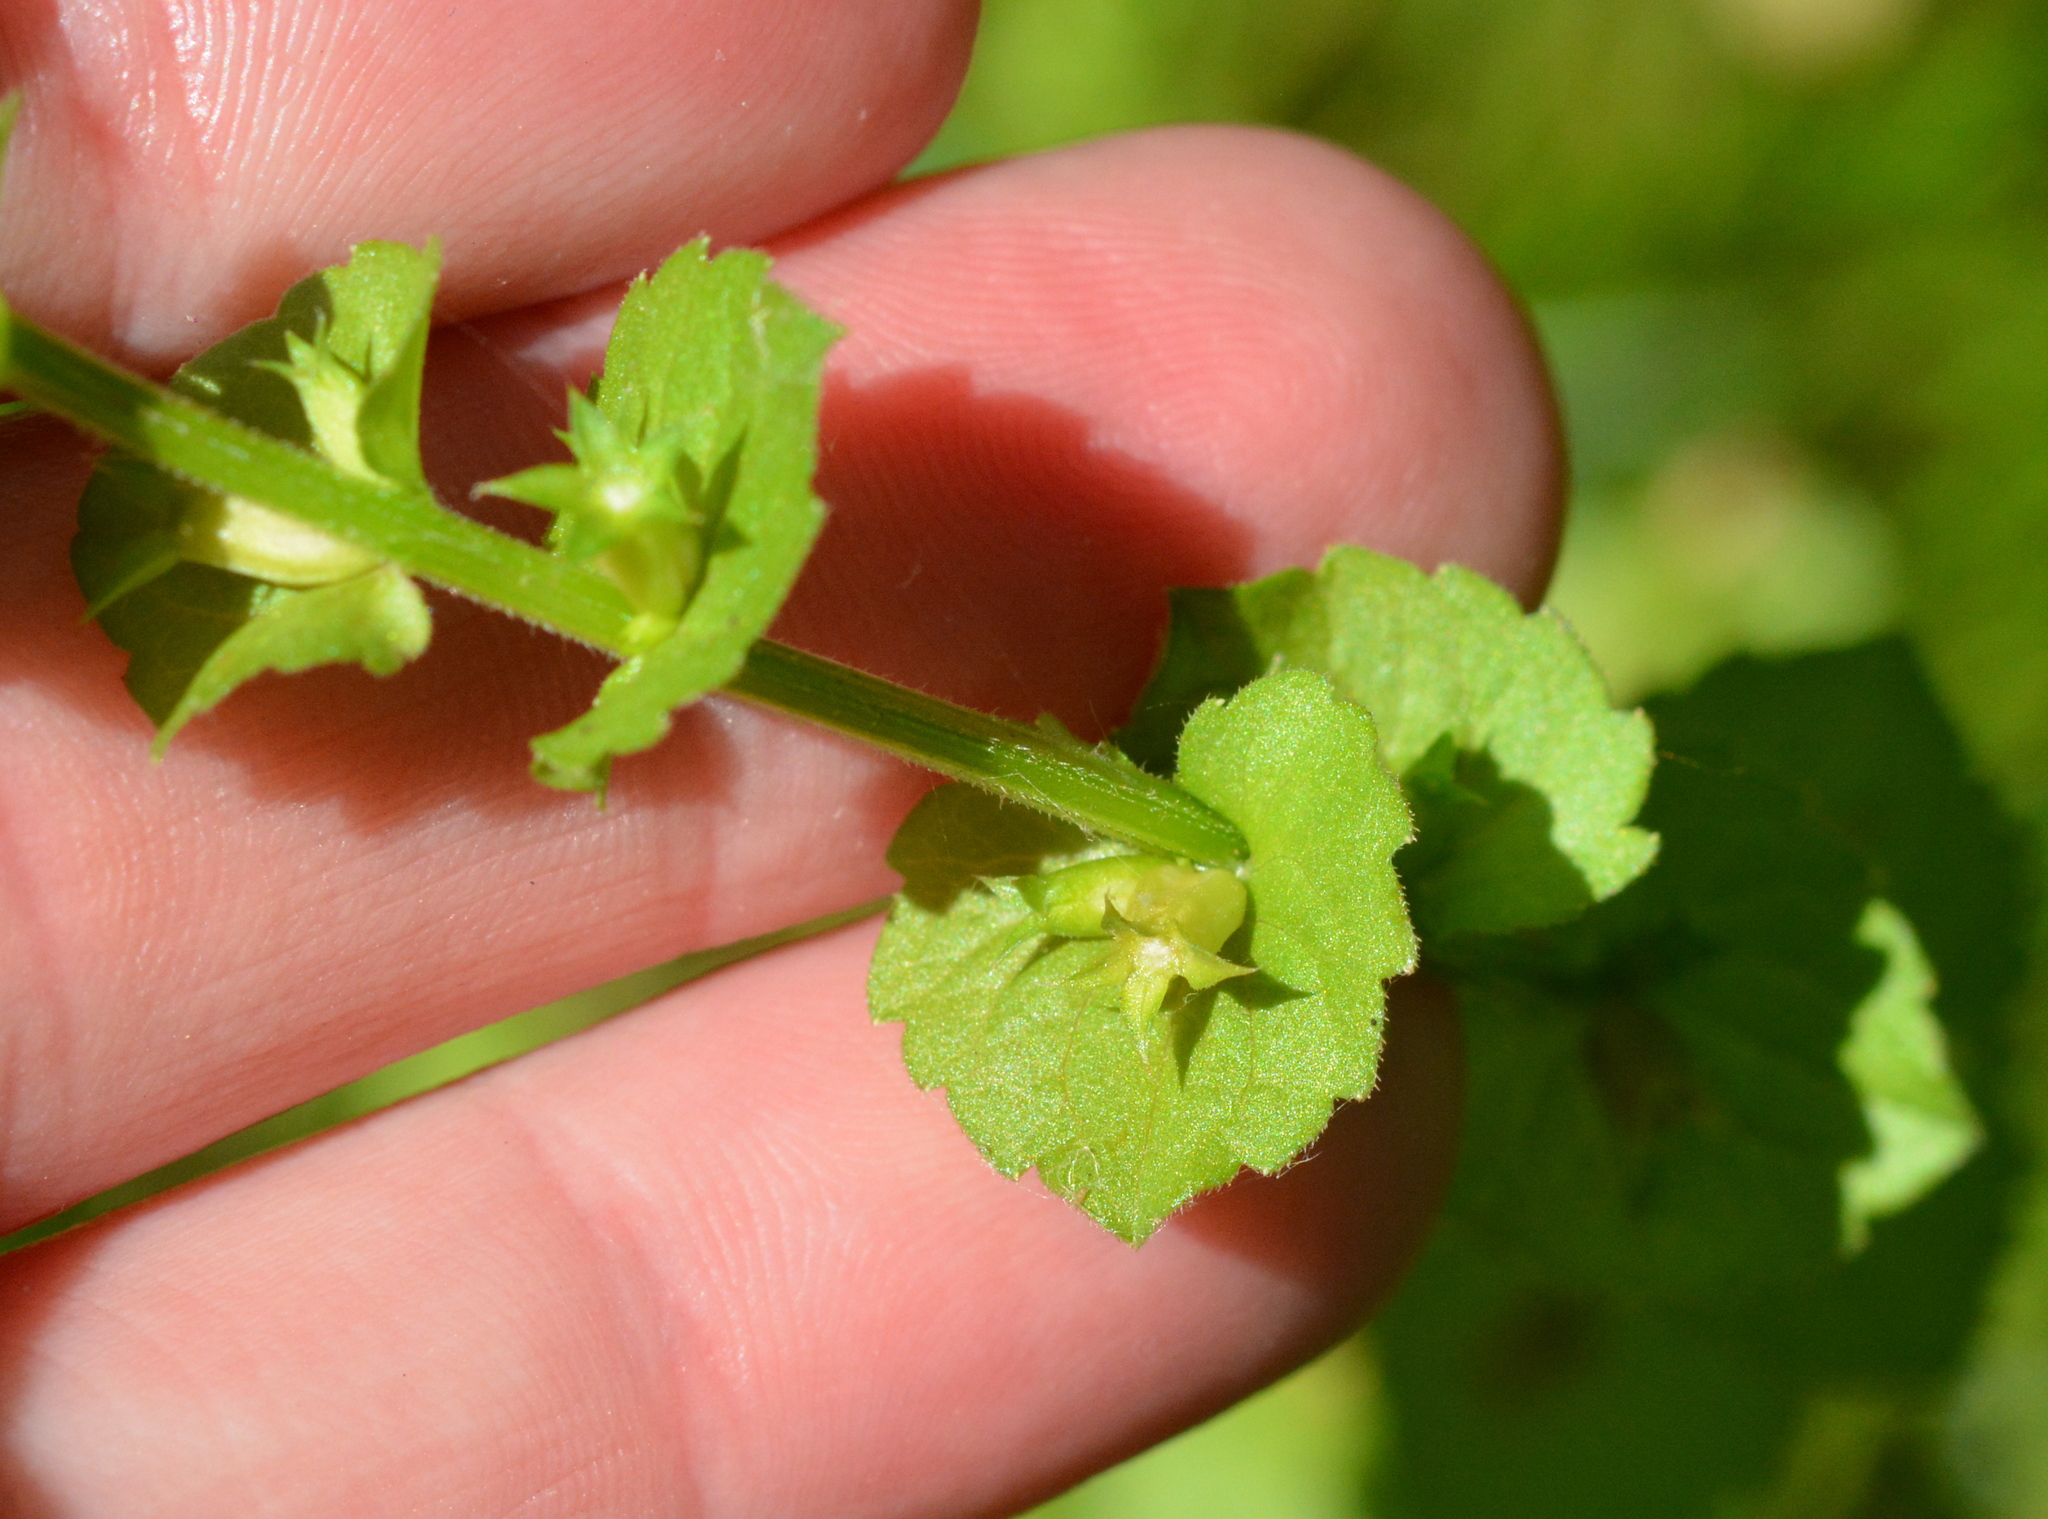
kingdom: Plantae
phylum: Tracheophyta
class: Magnoliopsida
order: Asterales
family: Campanulaceae
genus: Triodanis
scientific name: Triodanis perfoliata
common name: Clasping venus' looking-glass
